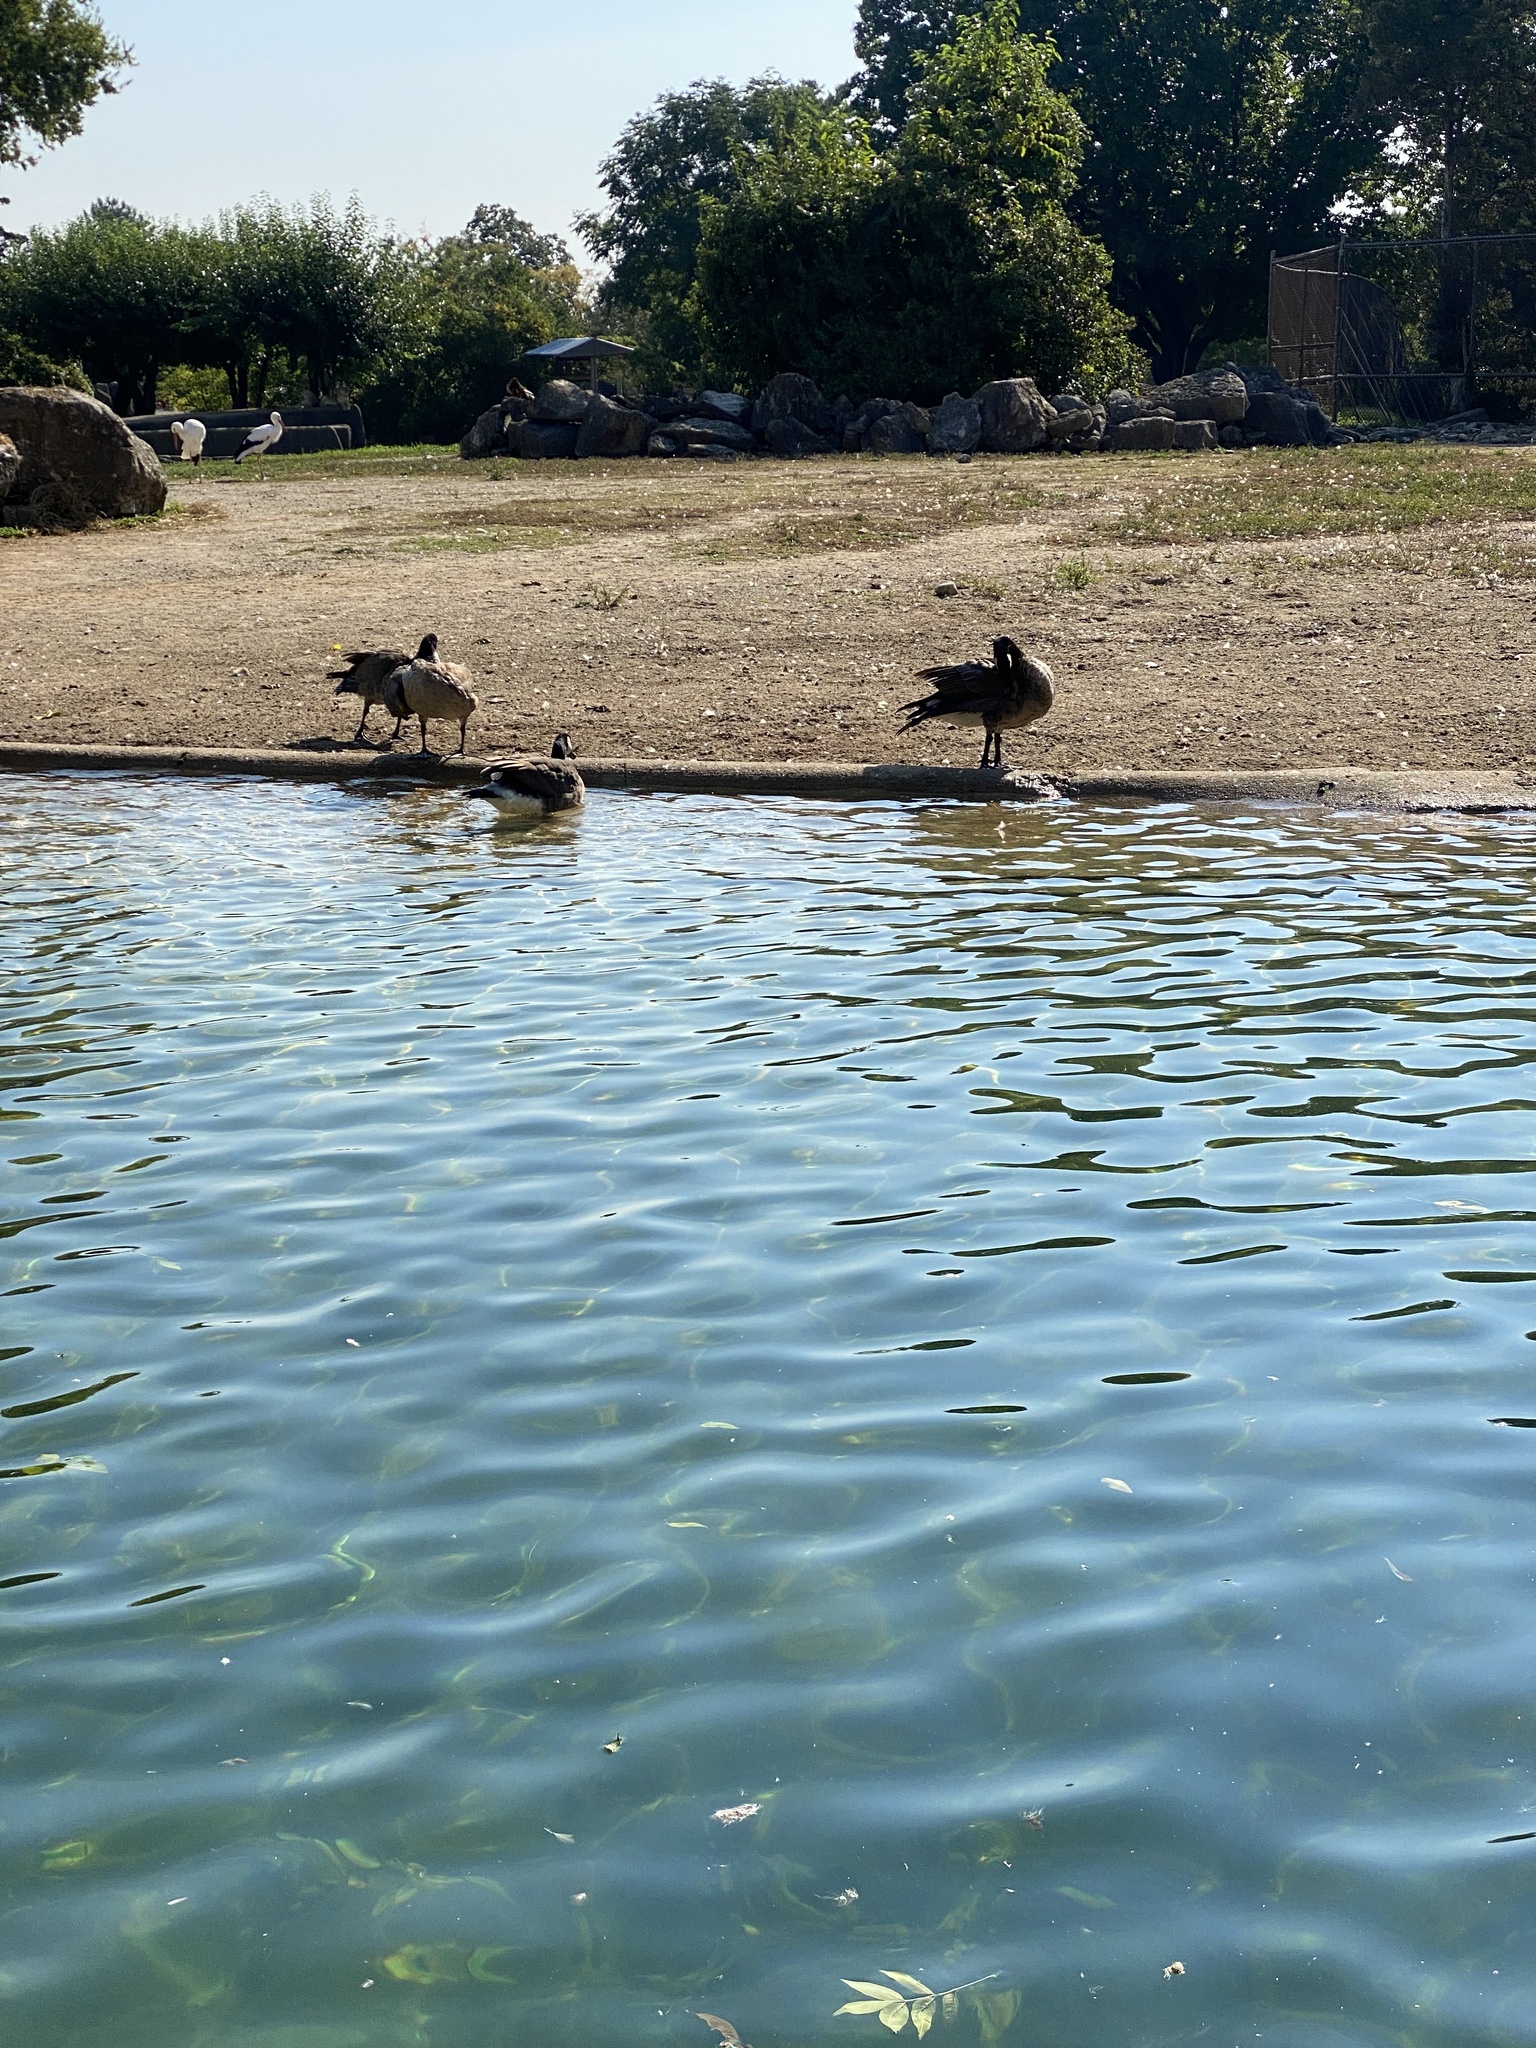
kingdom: Animalia
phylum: Chordata
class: Aves
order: Anseriformes
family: Anatidae
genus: Branta
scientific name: Branta canadensis
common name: Canada goose
